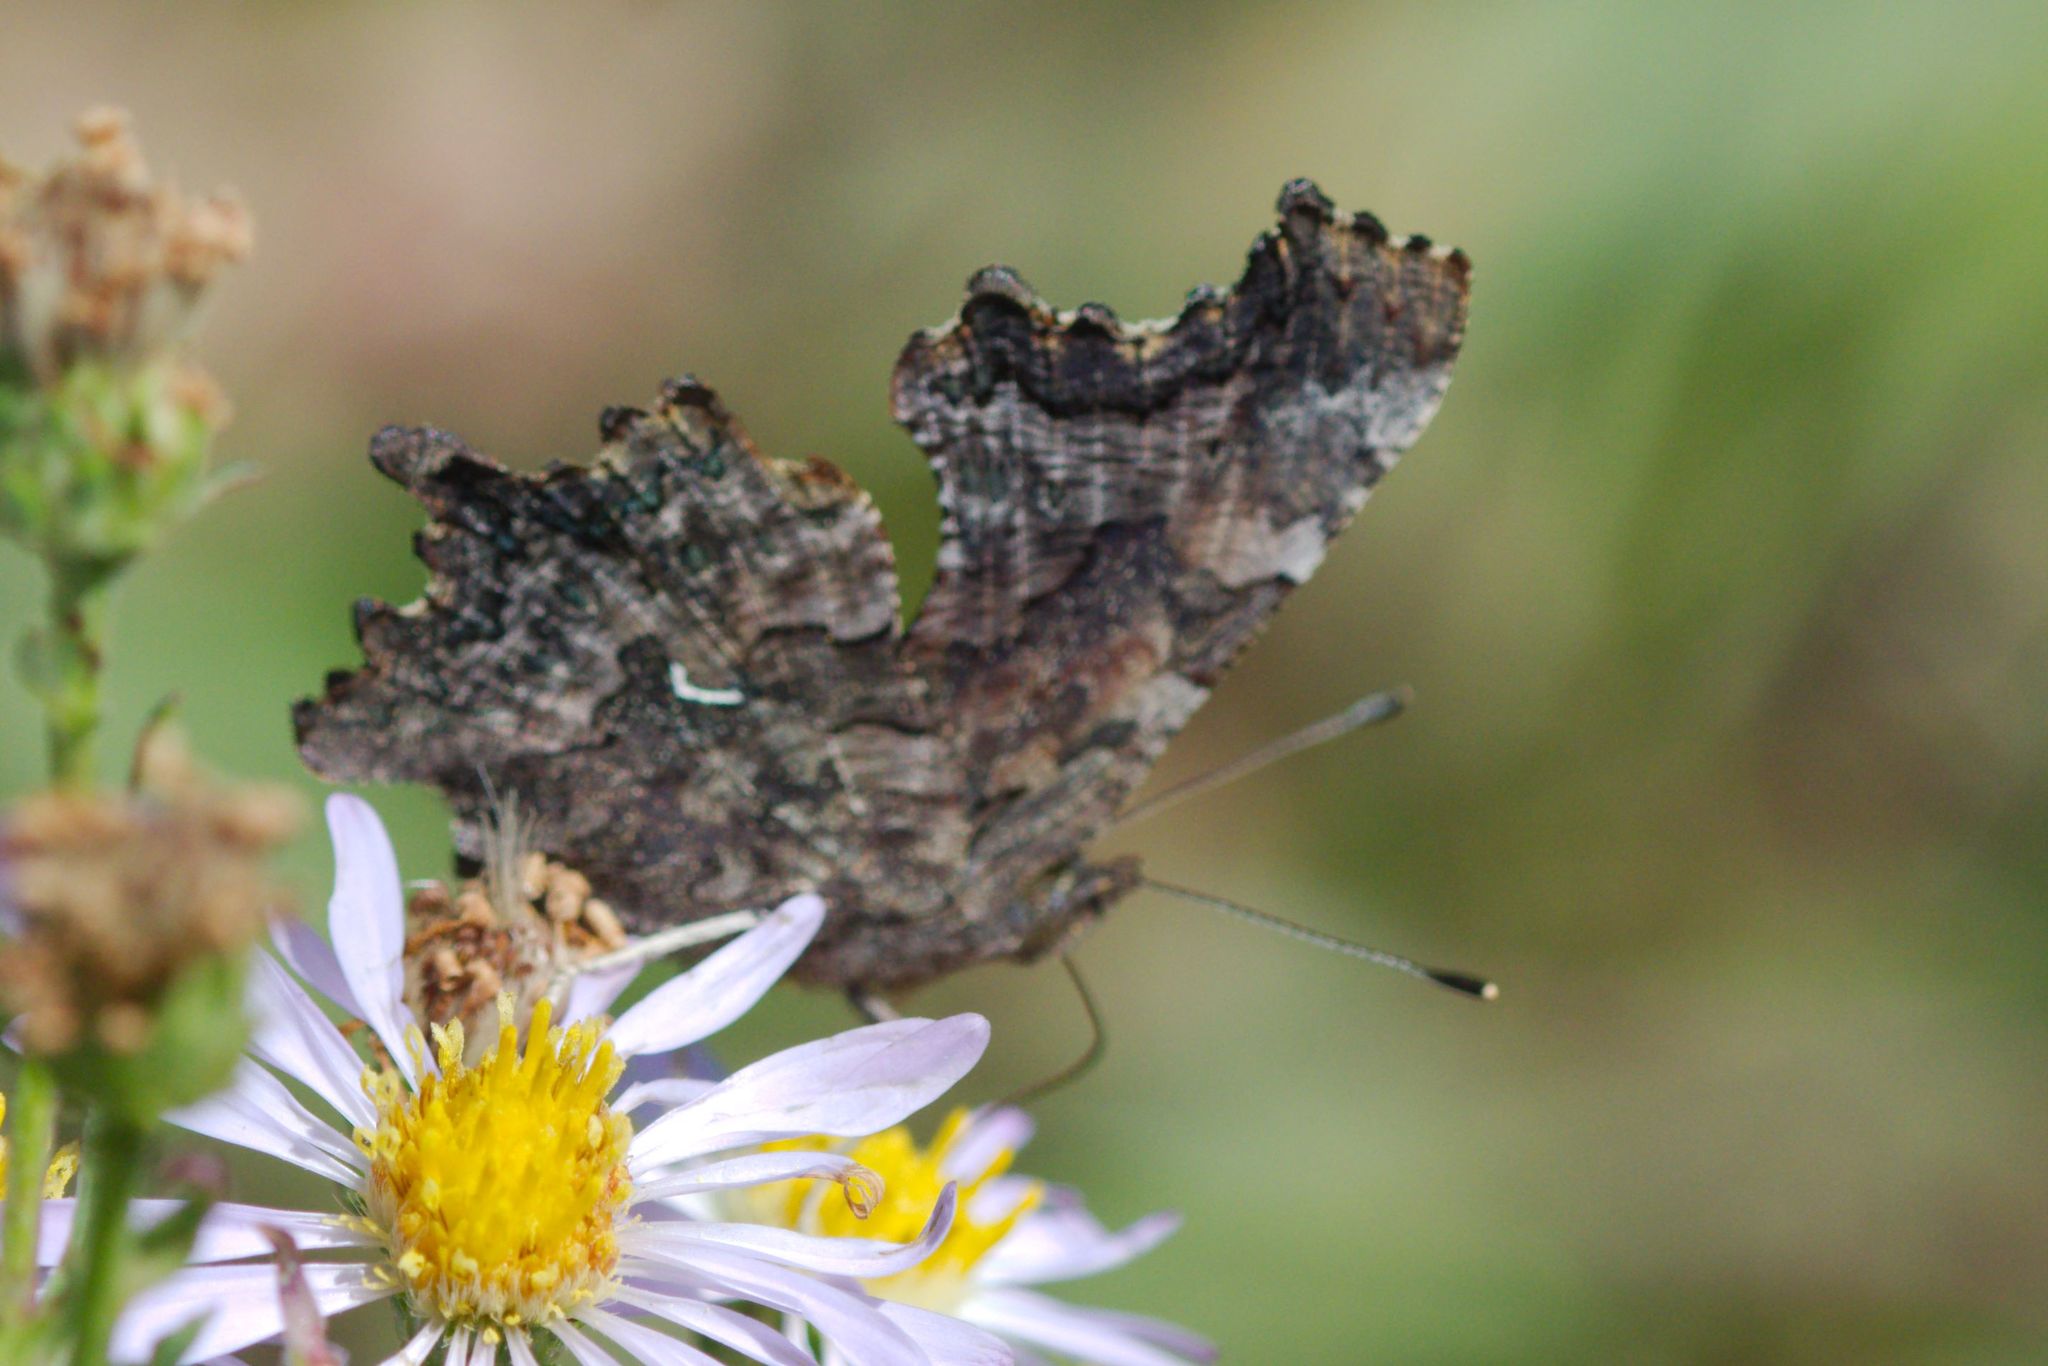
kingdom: Animalia
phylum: Arthropoda
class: Insecta
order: Lepidoptera
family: Nymphalidae
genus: Polygonia
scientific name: Polygonia faunus
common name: Green comma
